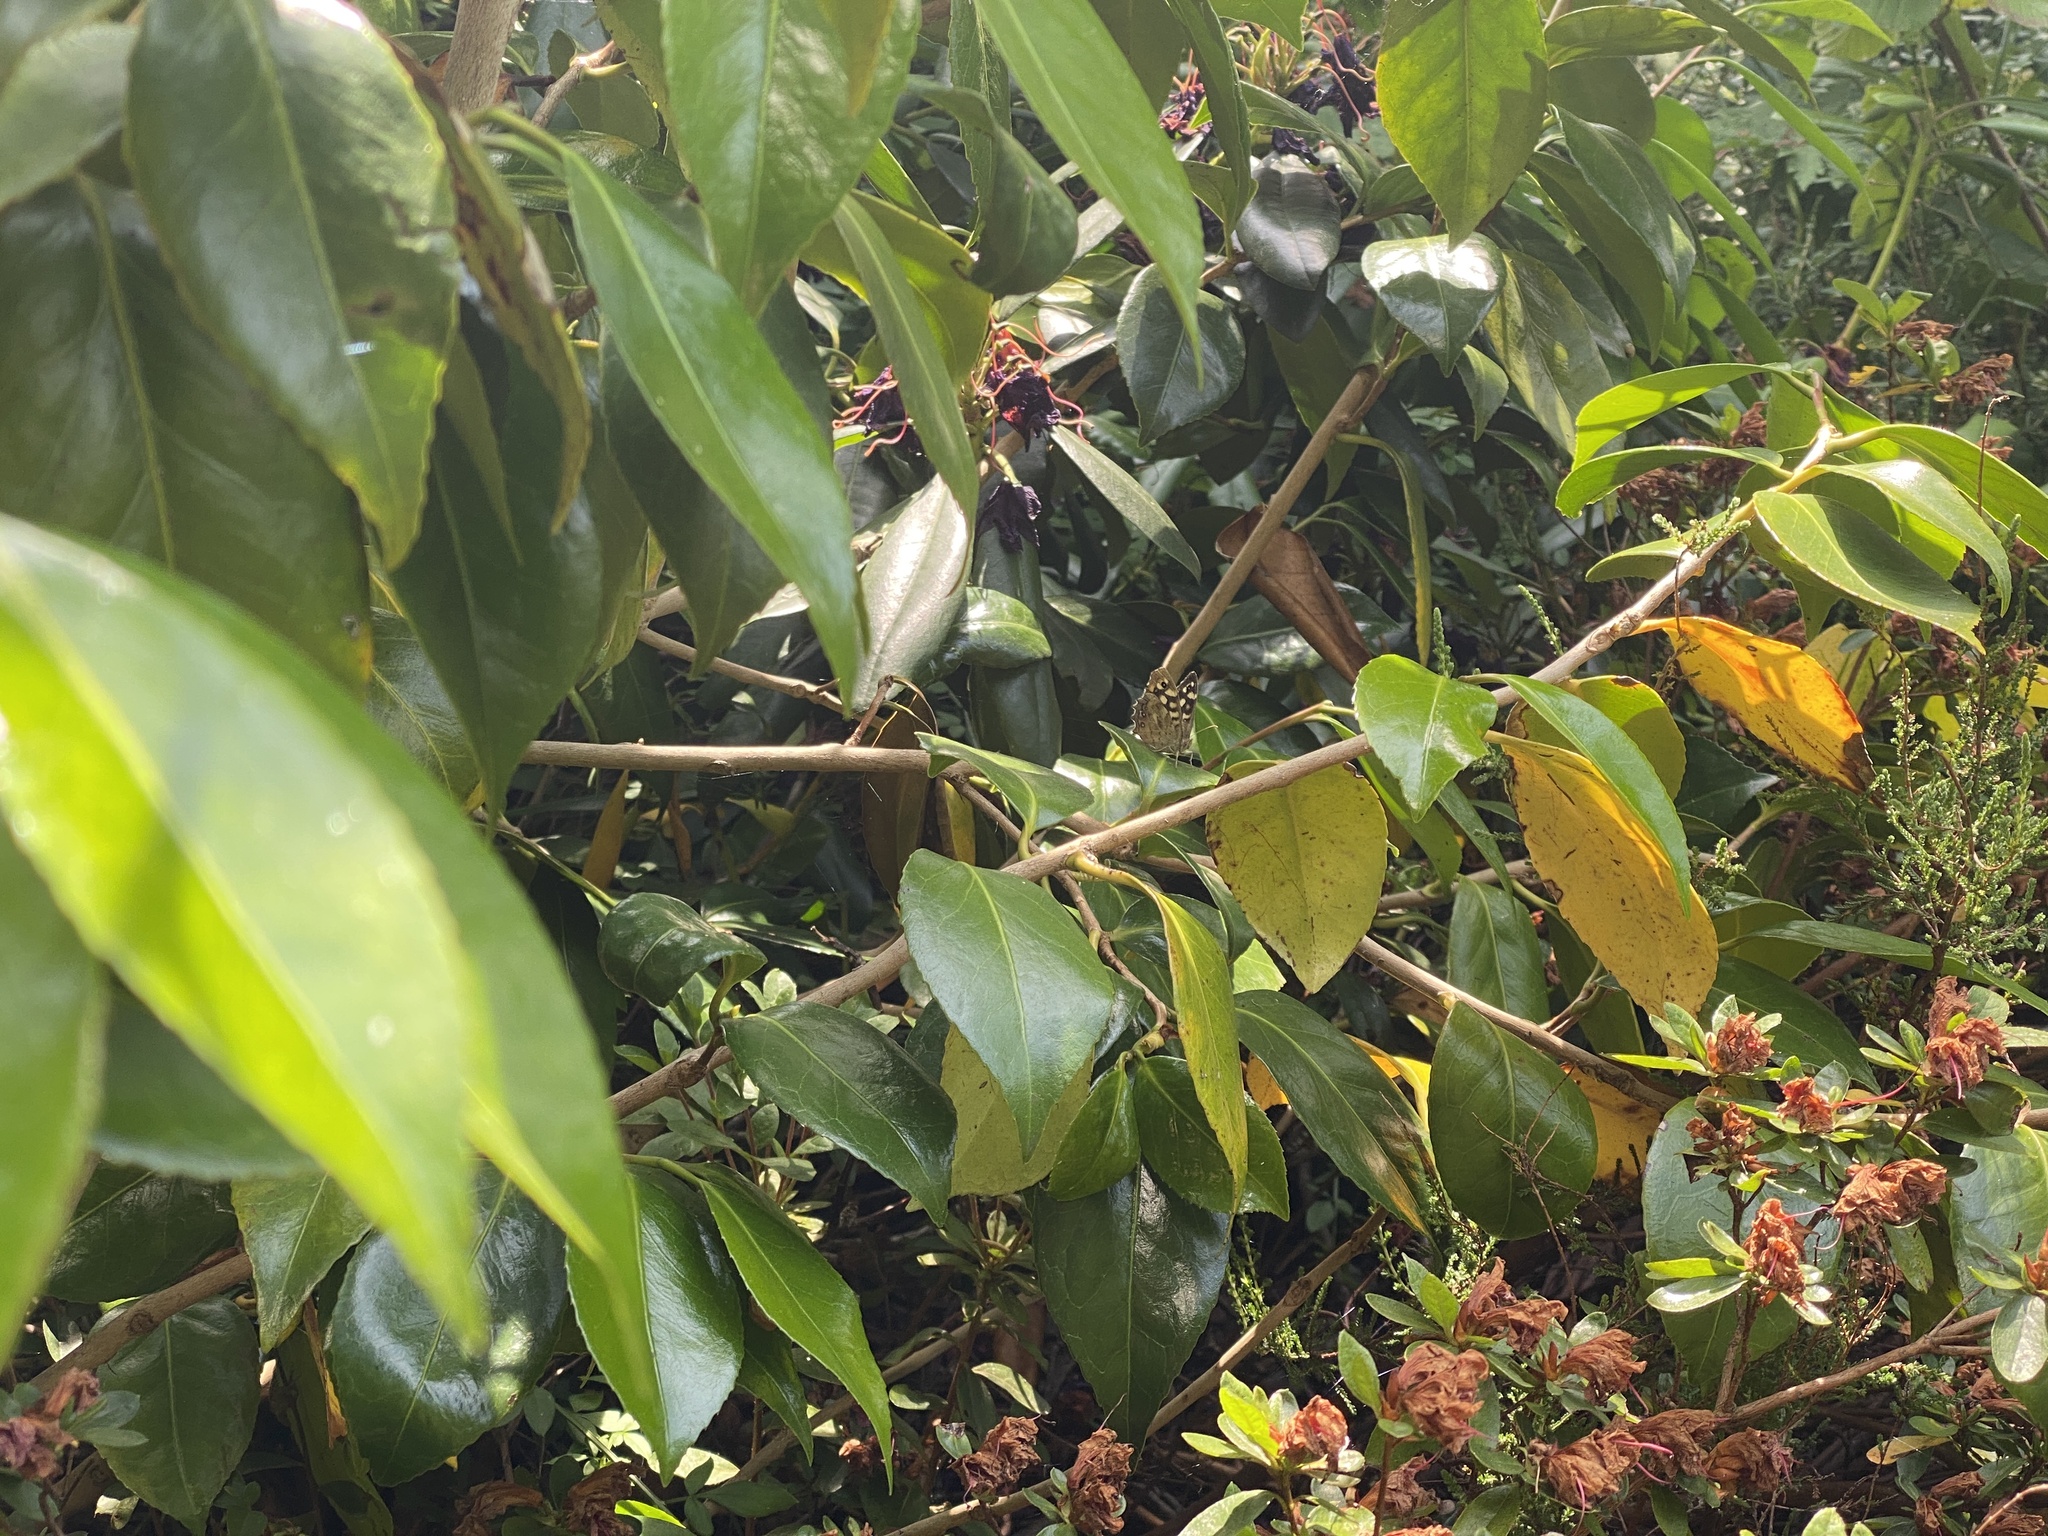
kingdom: Animalia
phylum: Arthropoda
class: Insecta
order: Lepidoptera
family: Nymphalidae
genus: Pararge
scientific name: Pararge aegeria
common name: Speckled wood
